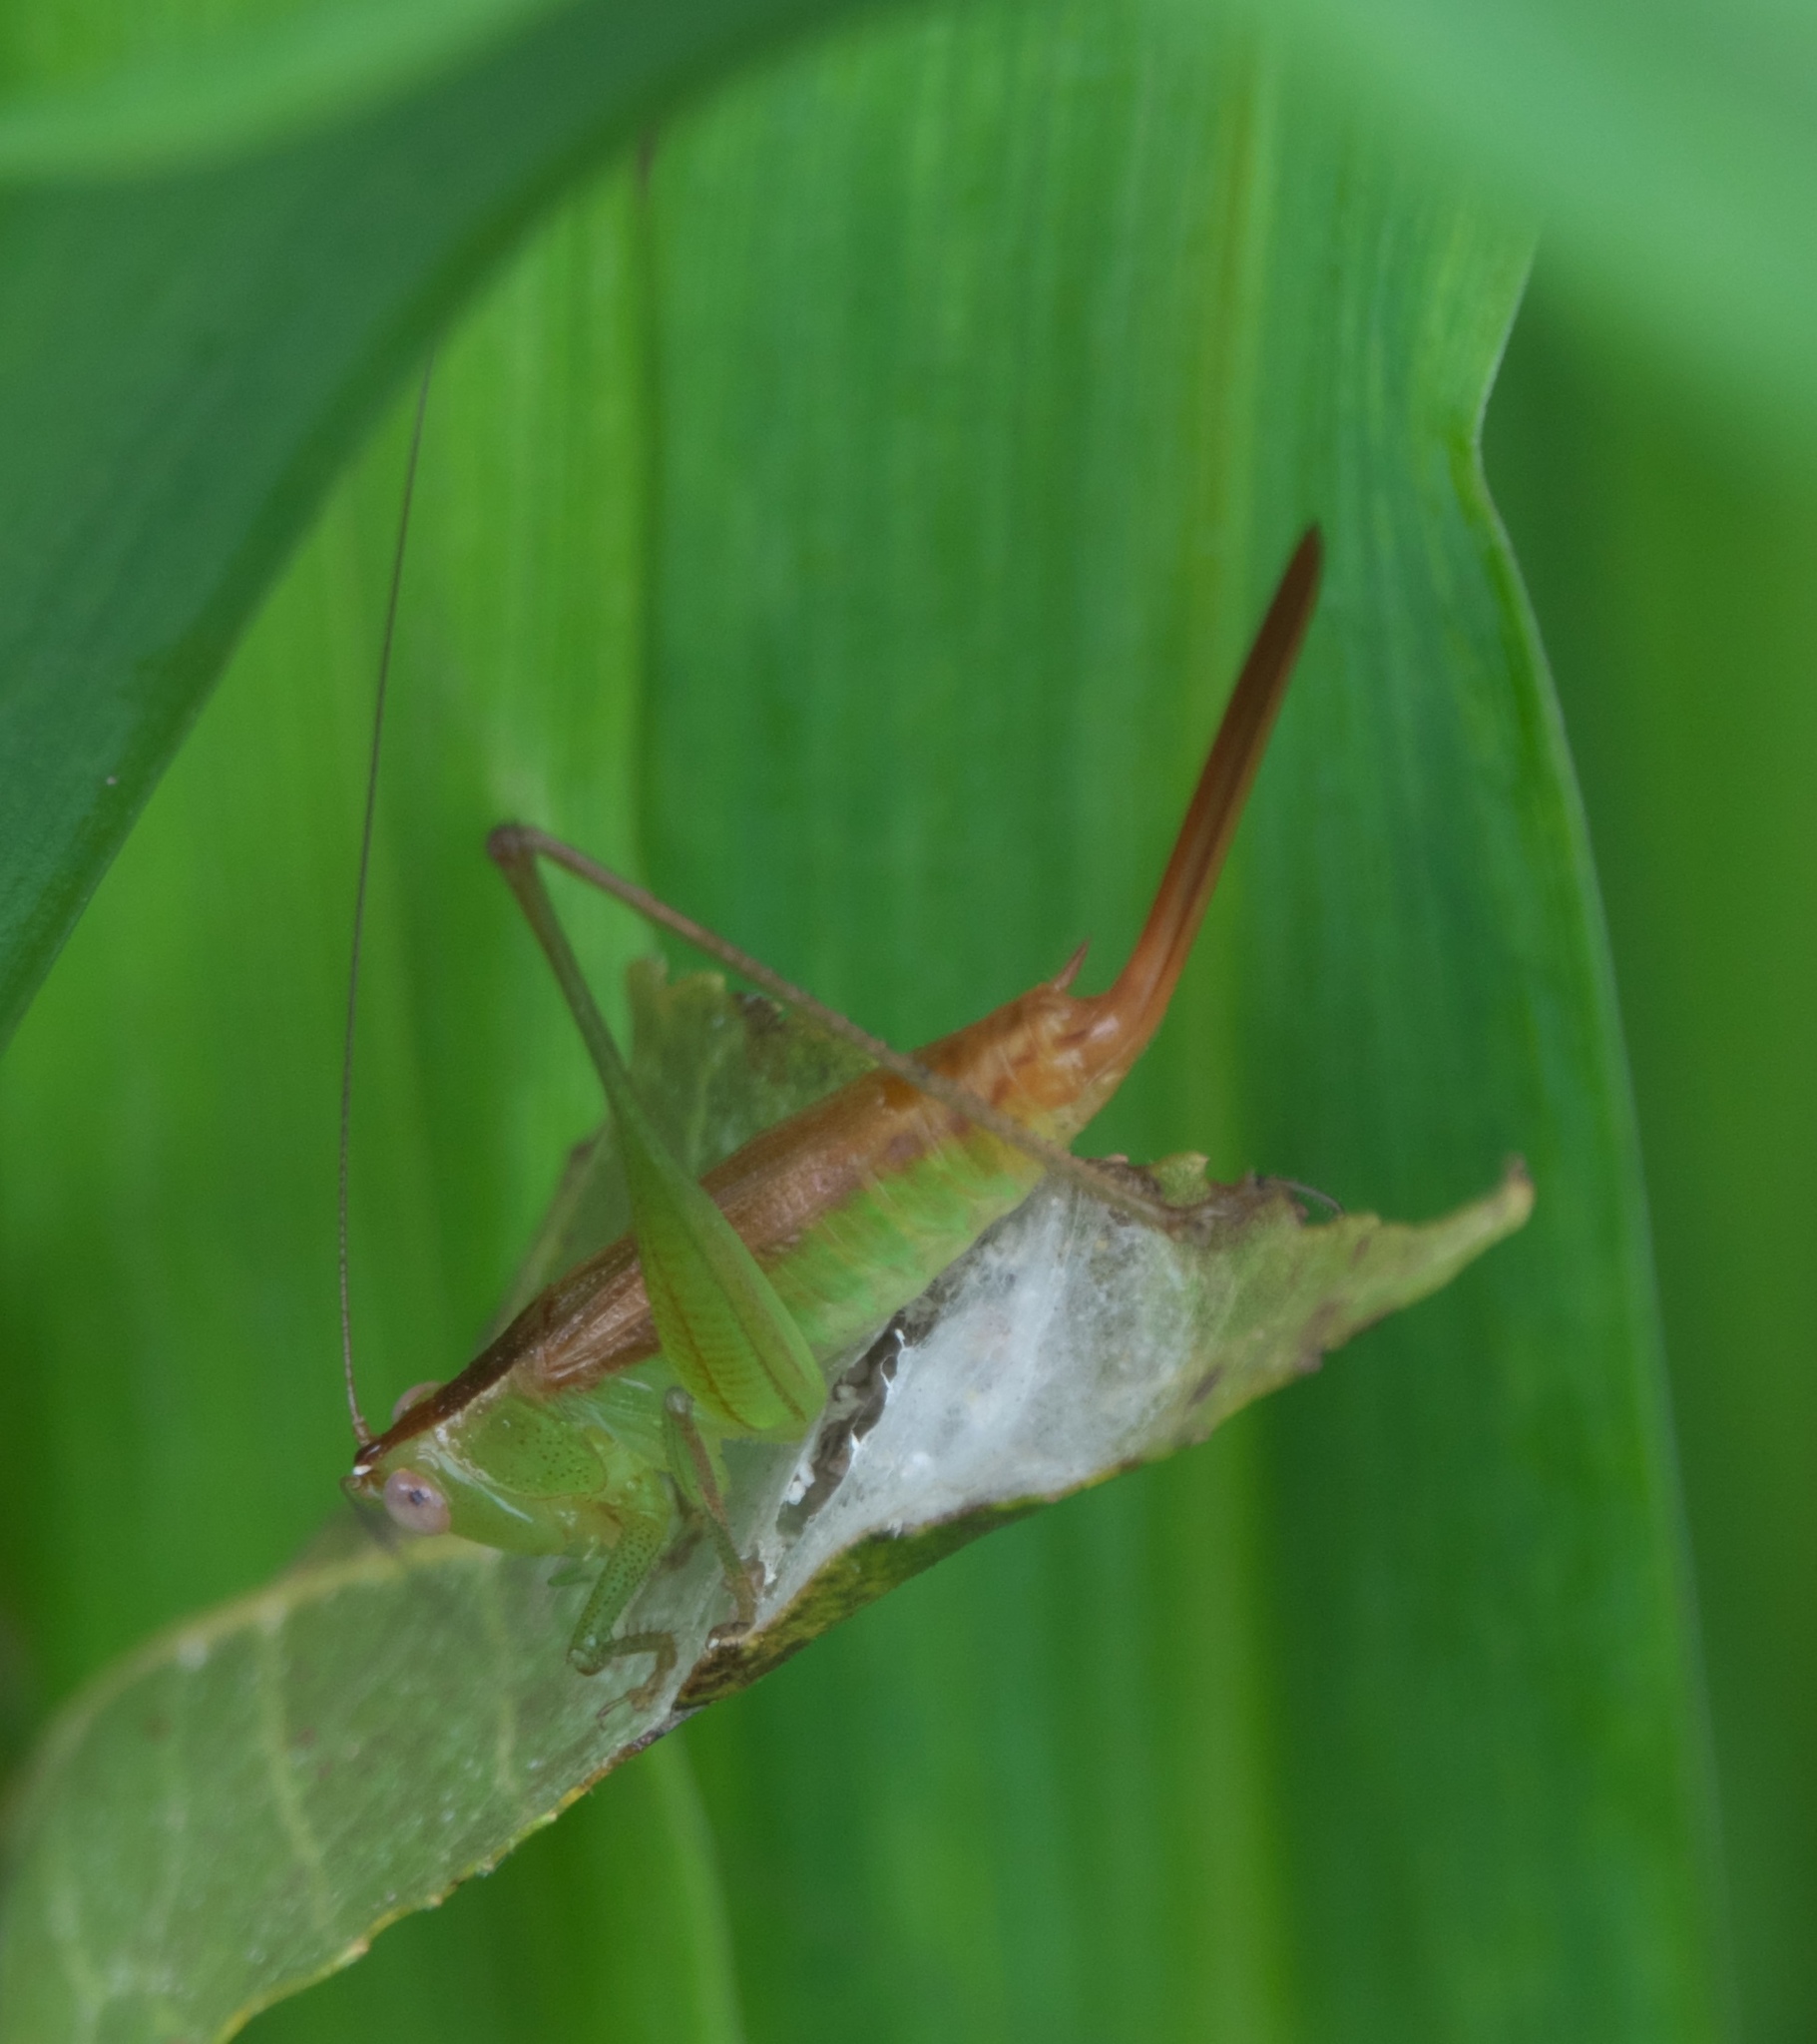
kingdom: Animalia
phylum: Arthropoda
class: Insecta
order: Orthoptera
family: Tettigoniidae
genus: Conocephalus
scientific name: Conocephalus brevipennis
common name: Short-winged meadow katydid
